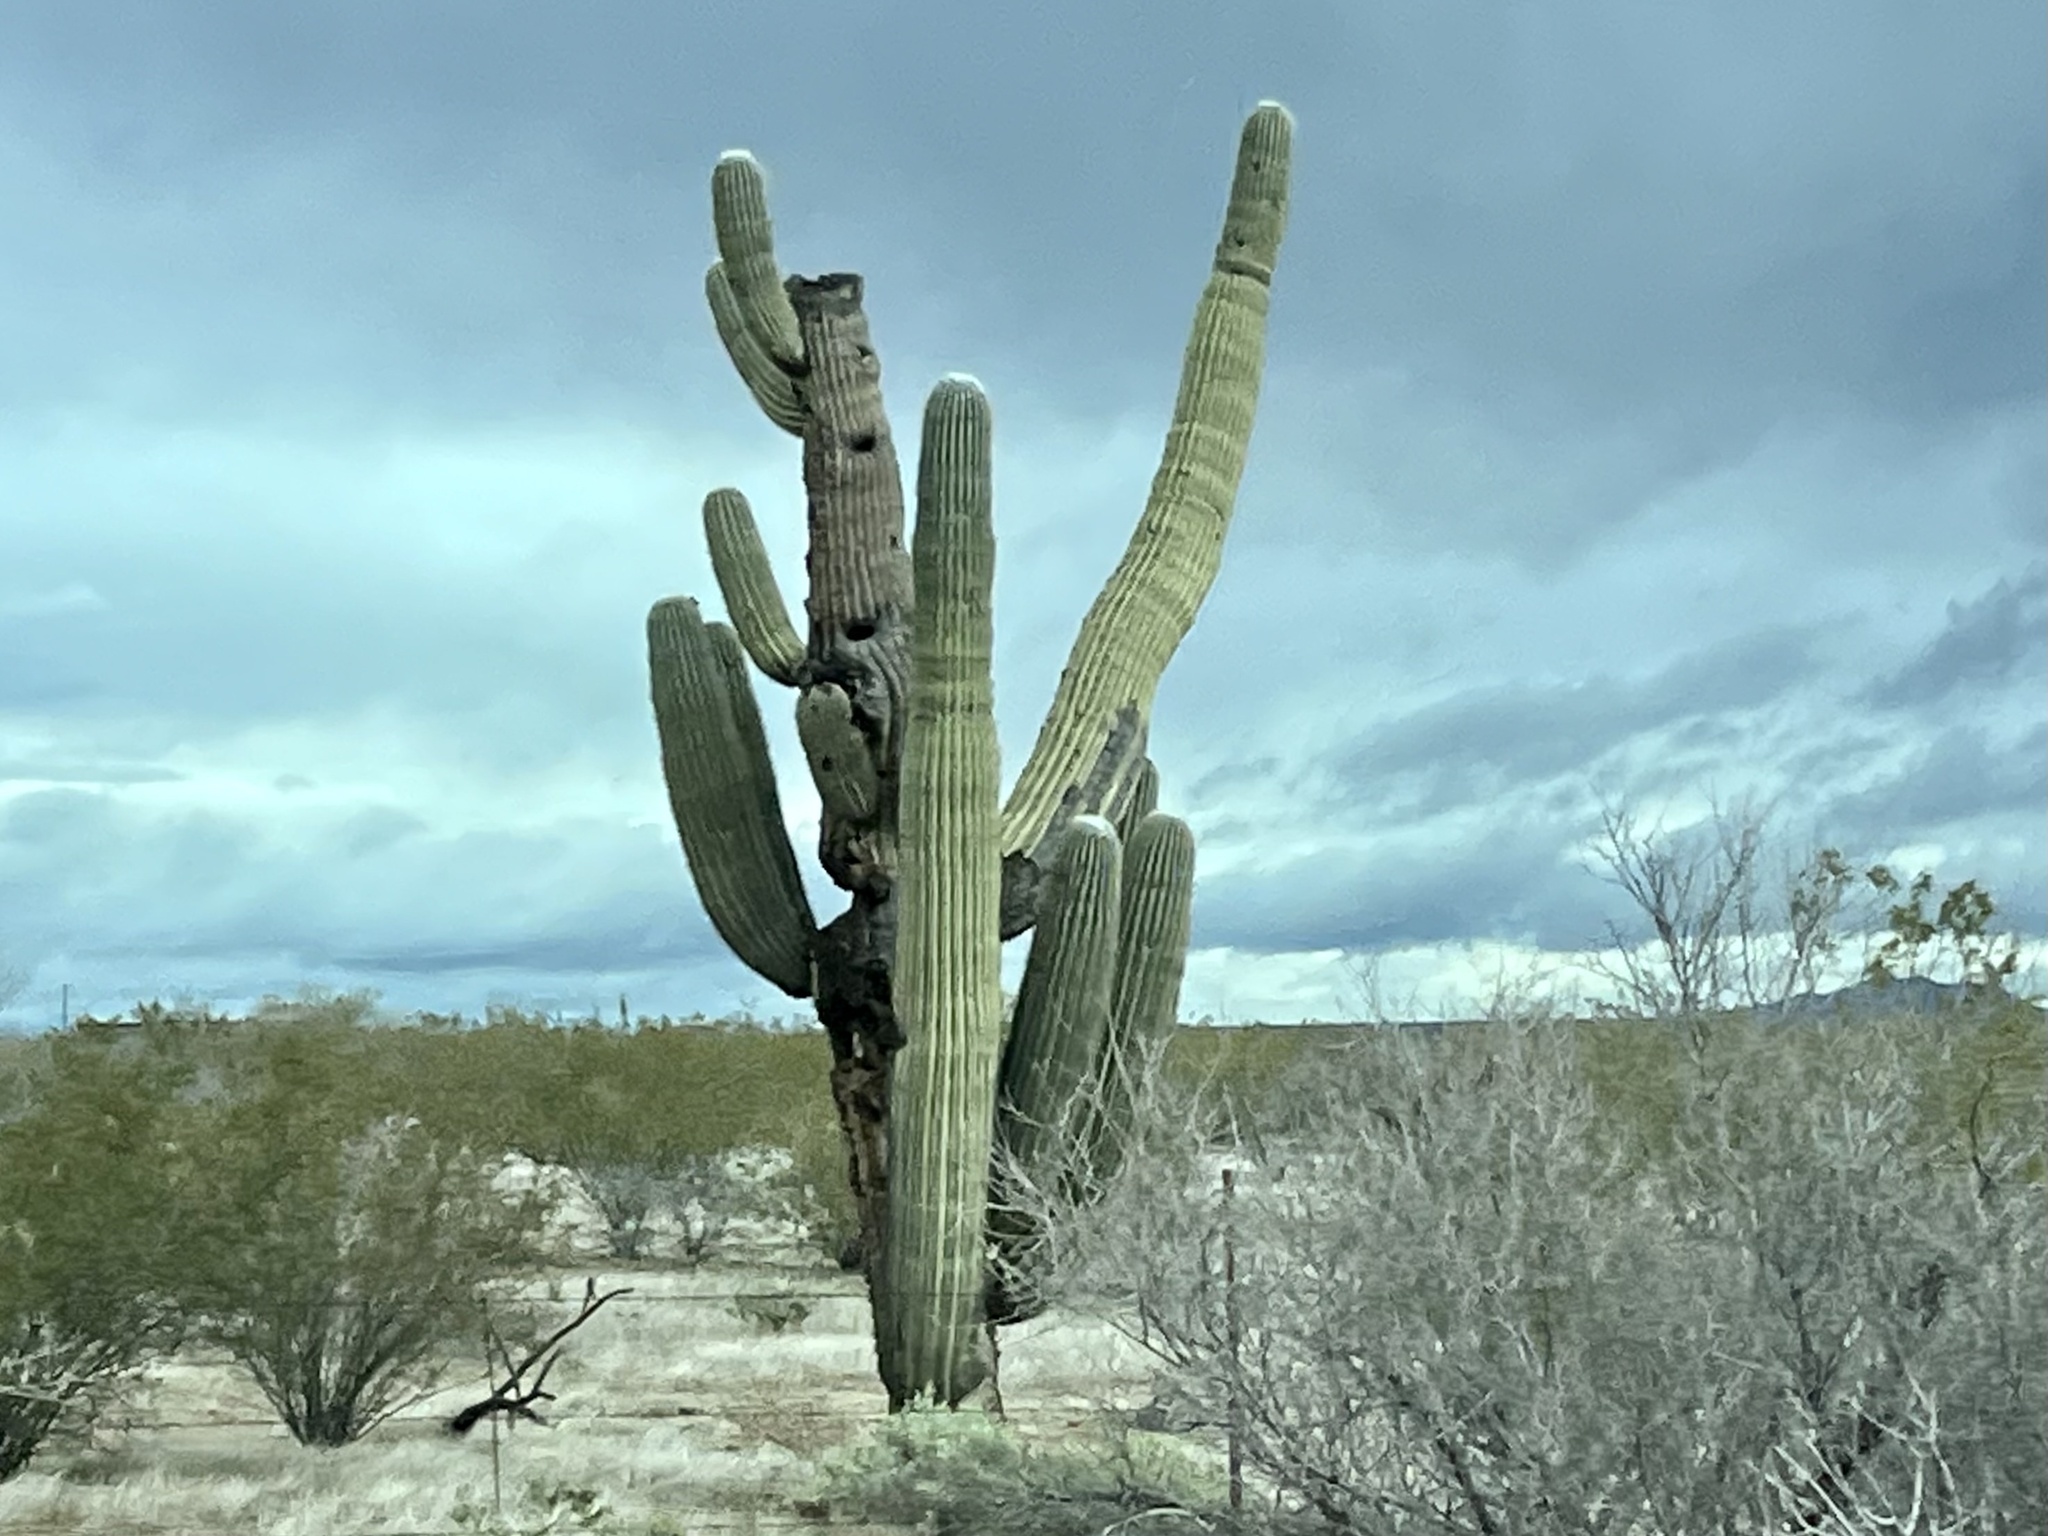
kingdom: Plantae
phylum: Tracheophyta
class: Magnoliopsida
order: Caryophyllales
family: Cactaceae
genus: Carnegiea
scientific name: Carnegiea gigantea
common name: Saguaro
